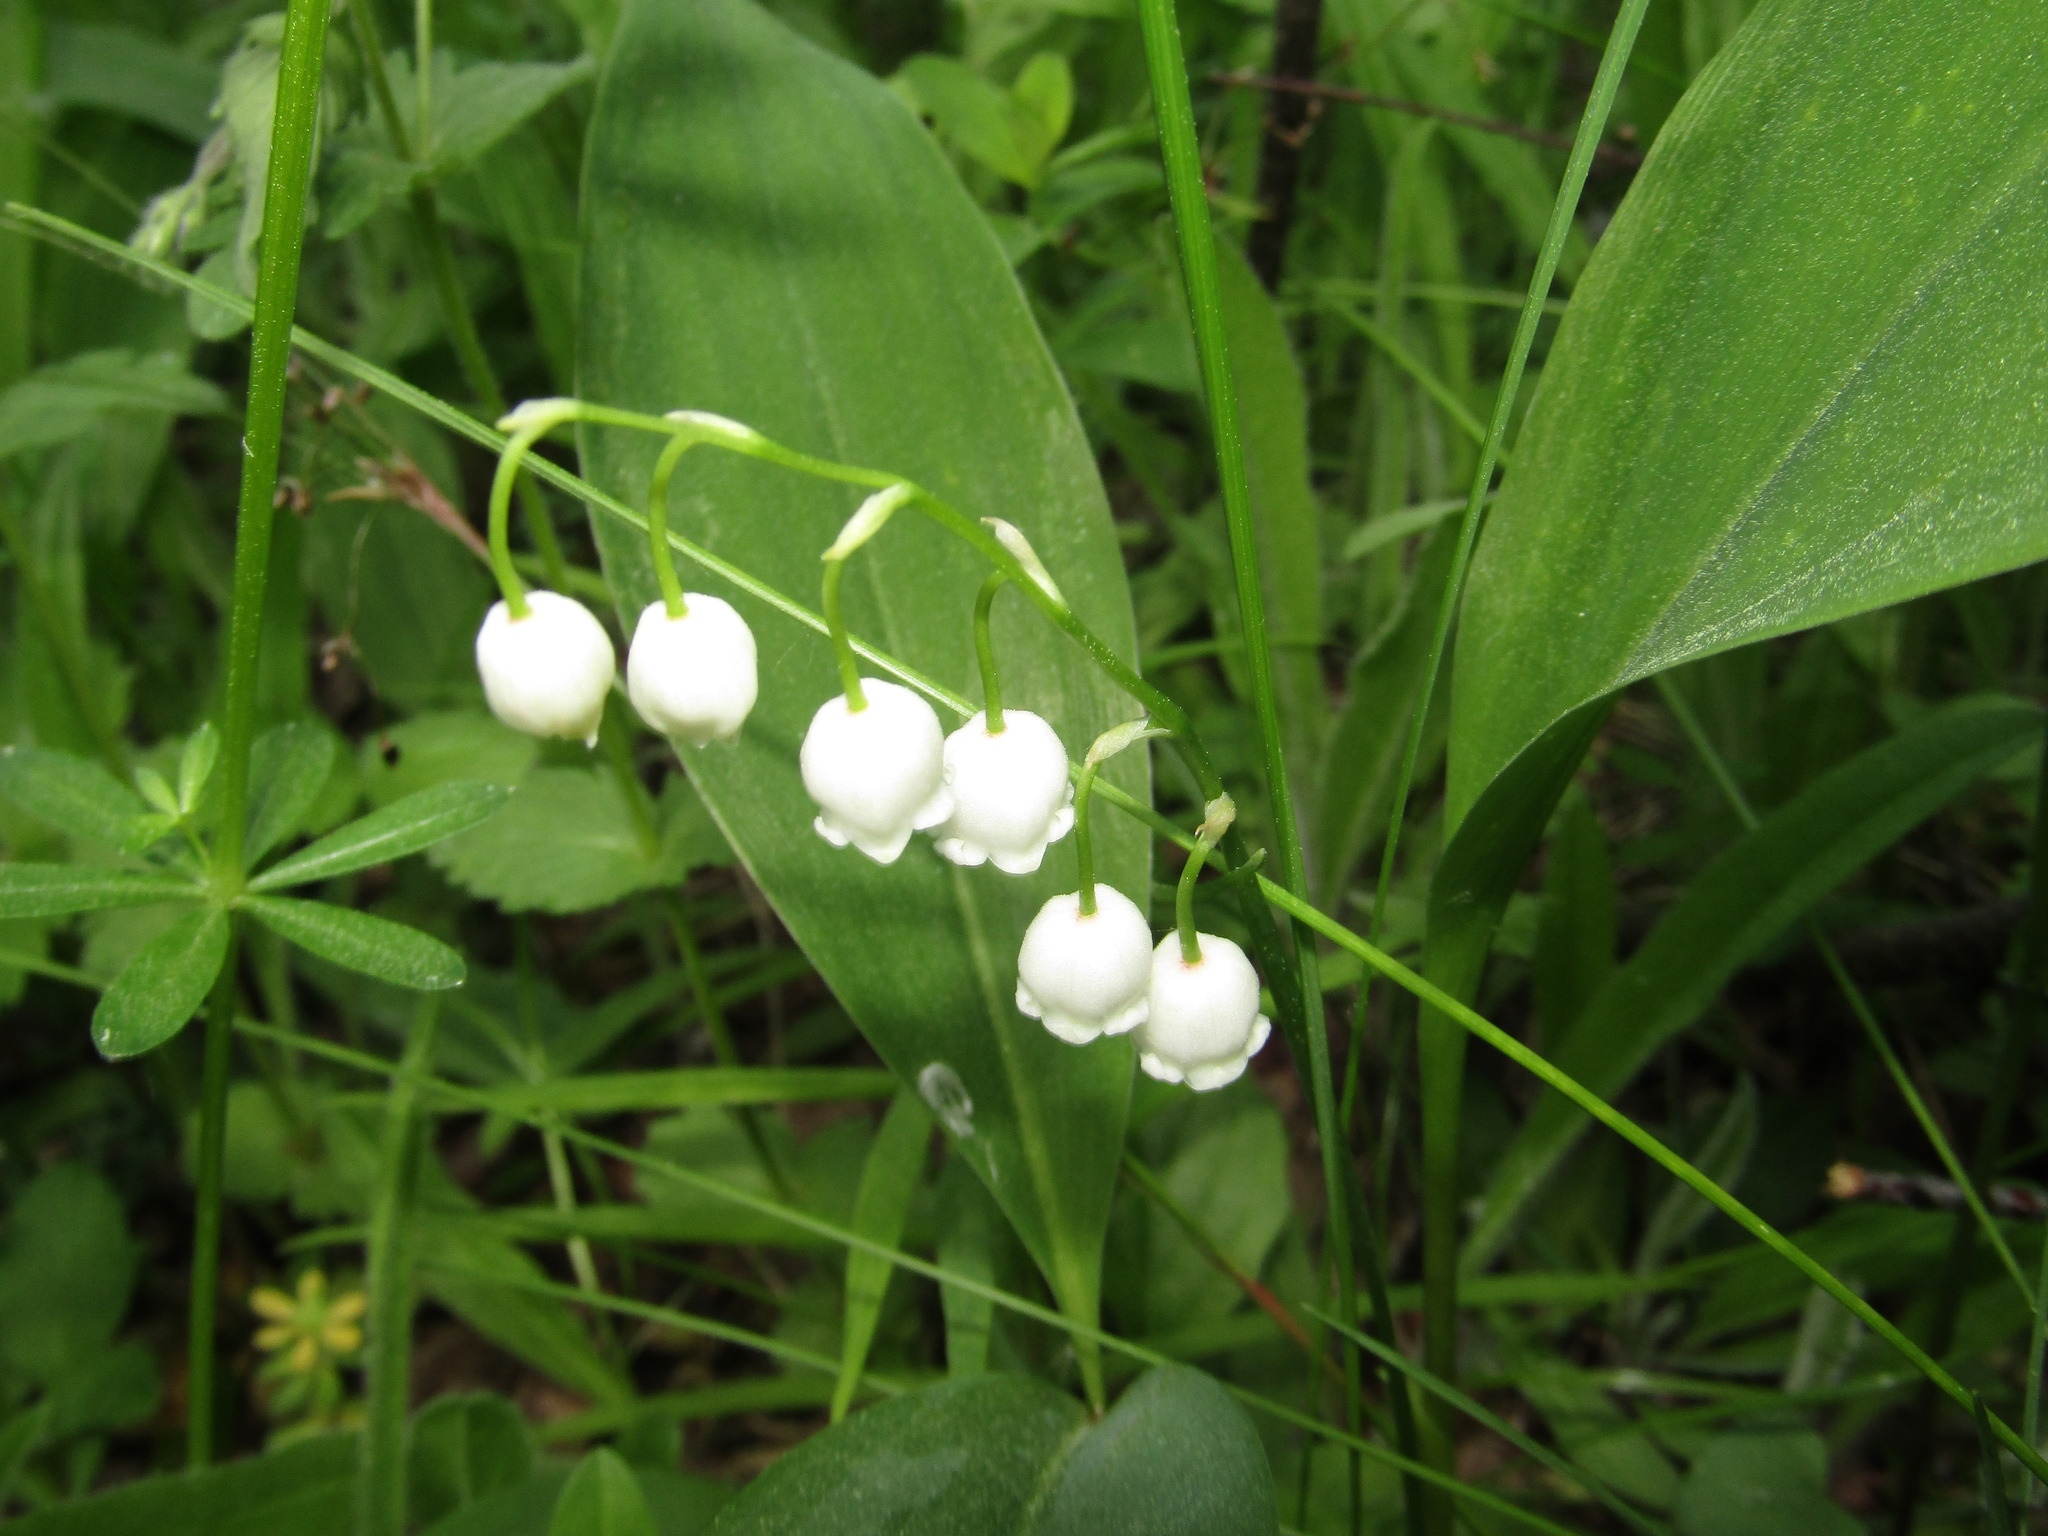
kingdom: Plantae
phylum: Tracheophyta
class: Liliopsida
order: Asparagales
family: Asparagaceae
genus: Convallaria
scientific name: Convallaria majalis
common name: Lily-of-the-valley
